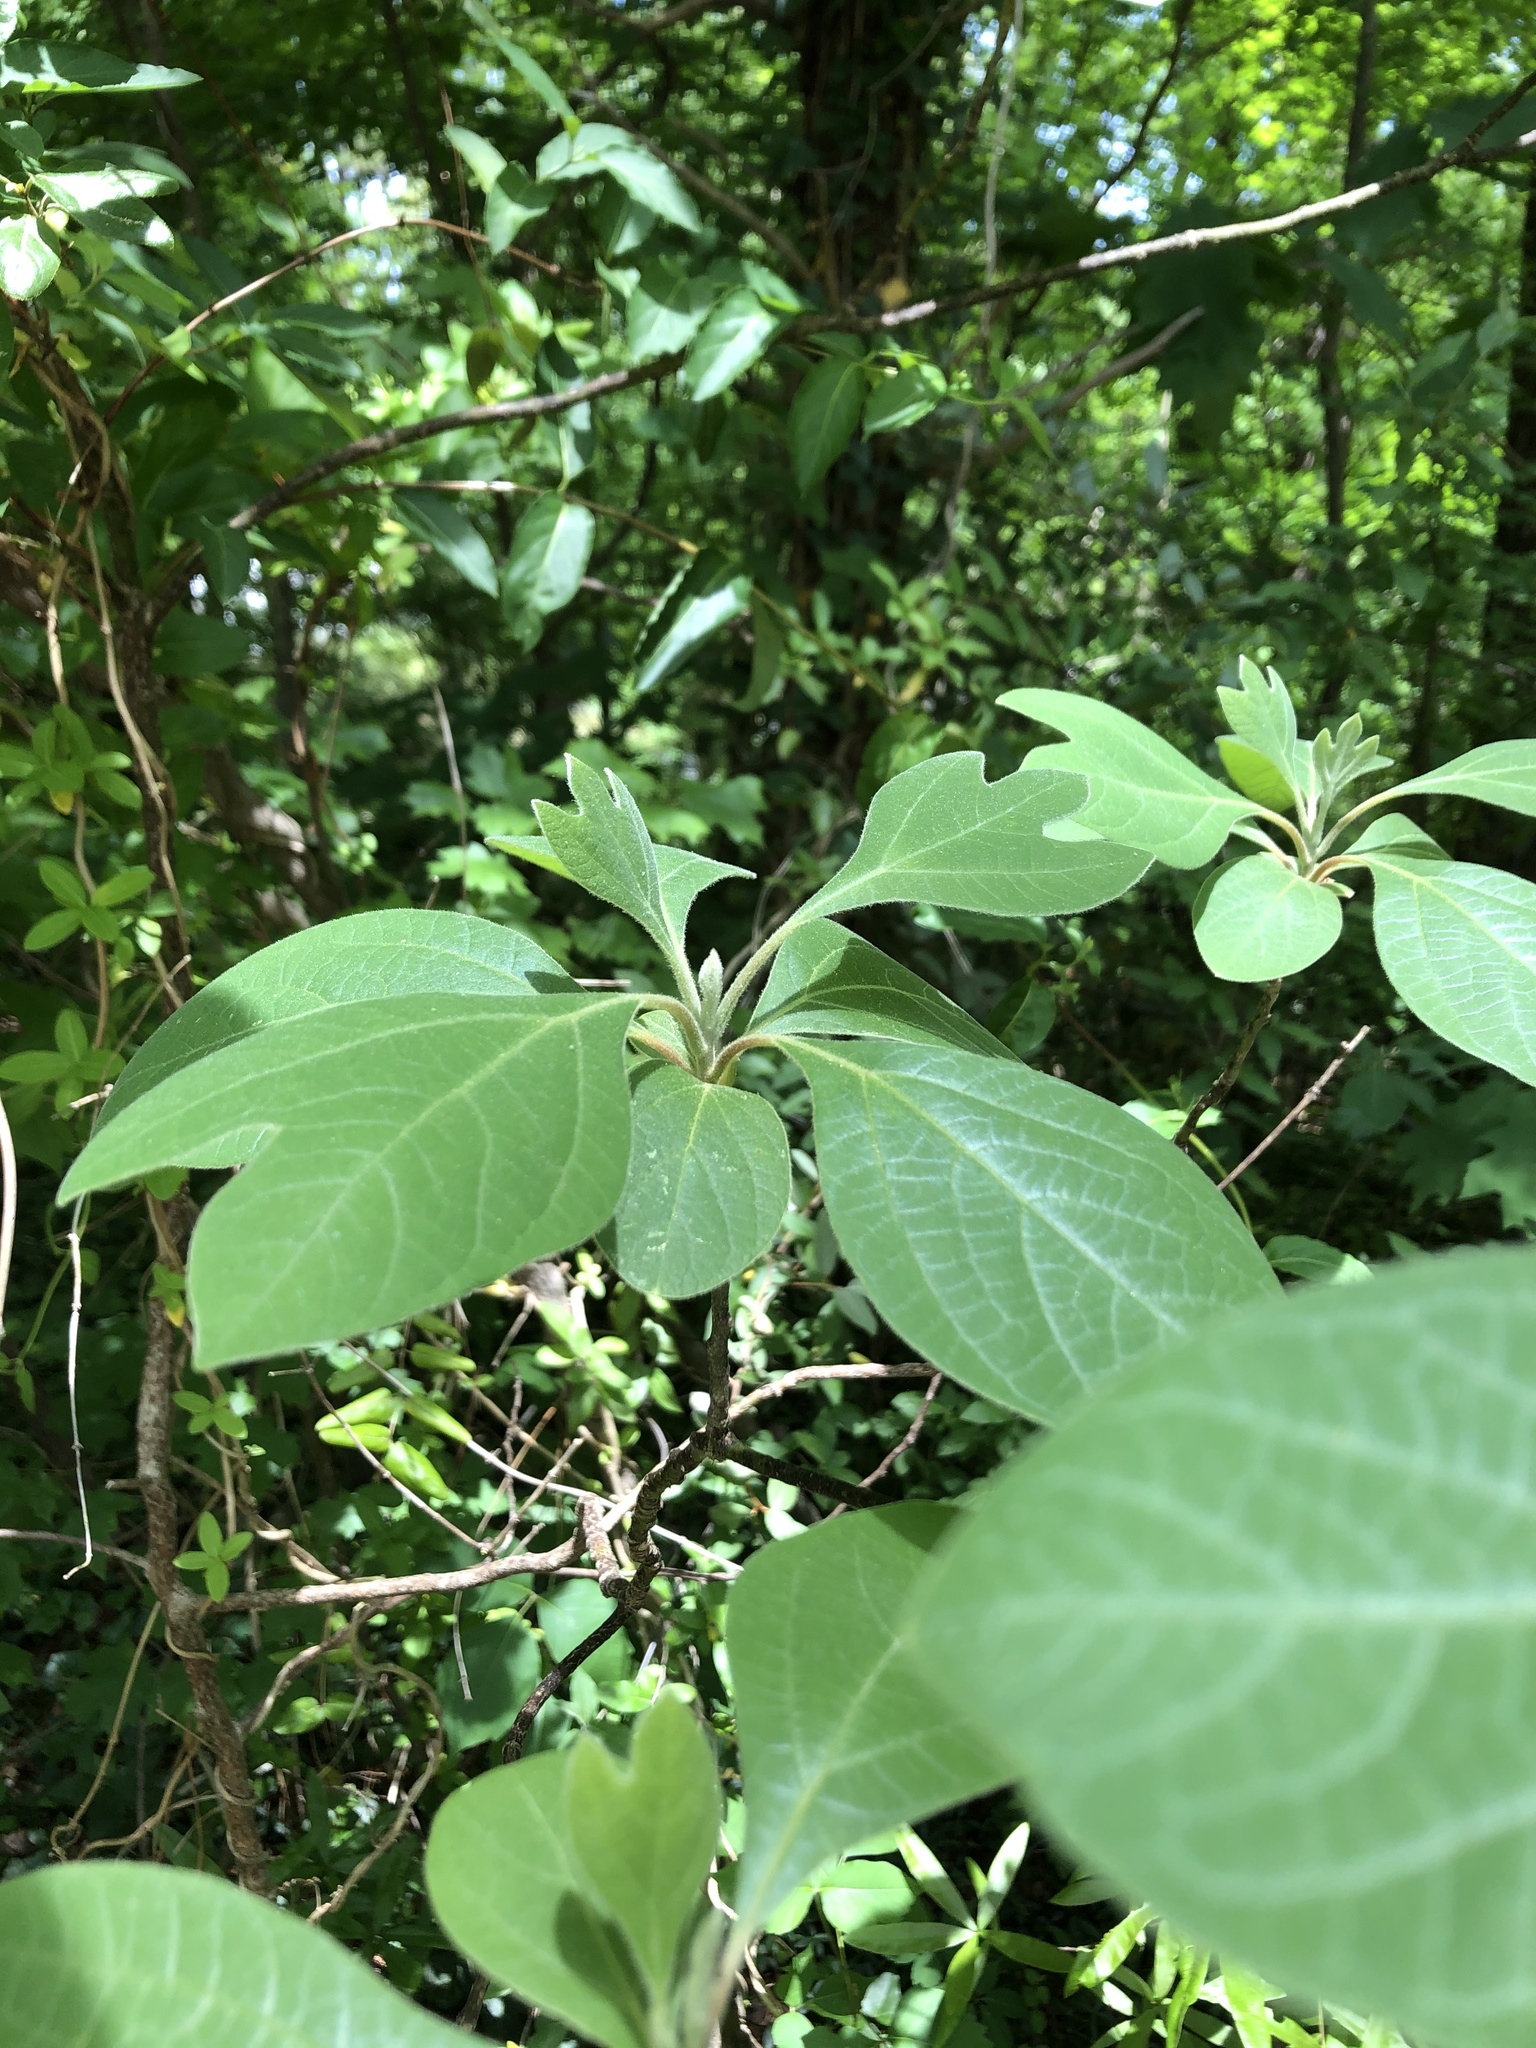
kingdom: Plantae
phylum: Tracheophyta
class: Magnoliopsida
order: Laurales
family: Lauraceae
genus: Sassafras
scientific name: Sassafras albidum
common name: Sassafras
